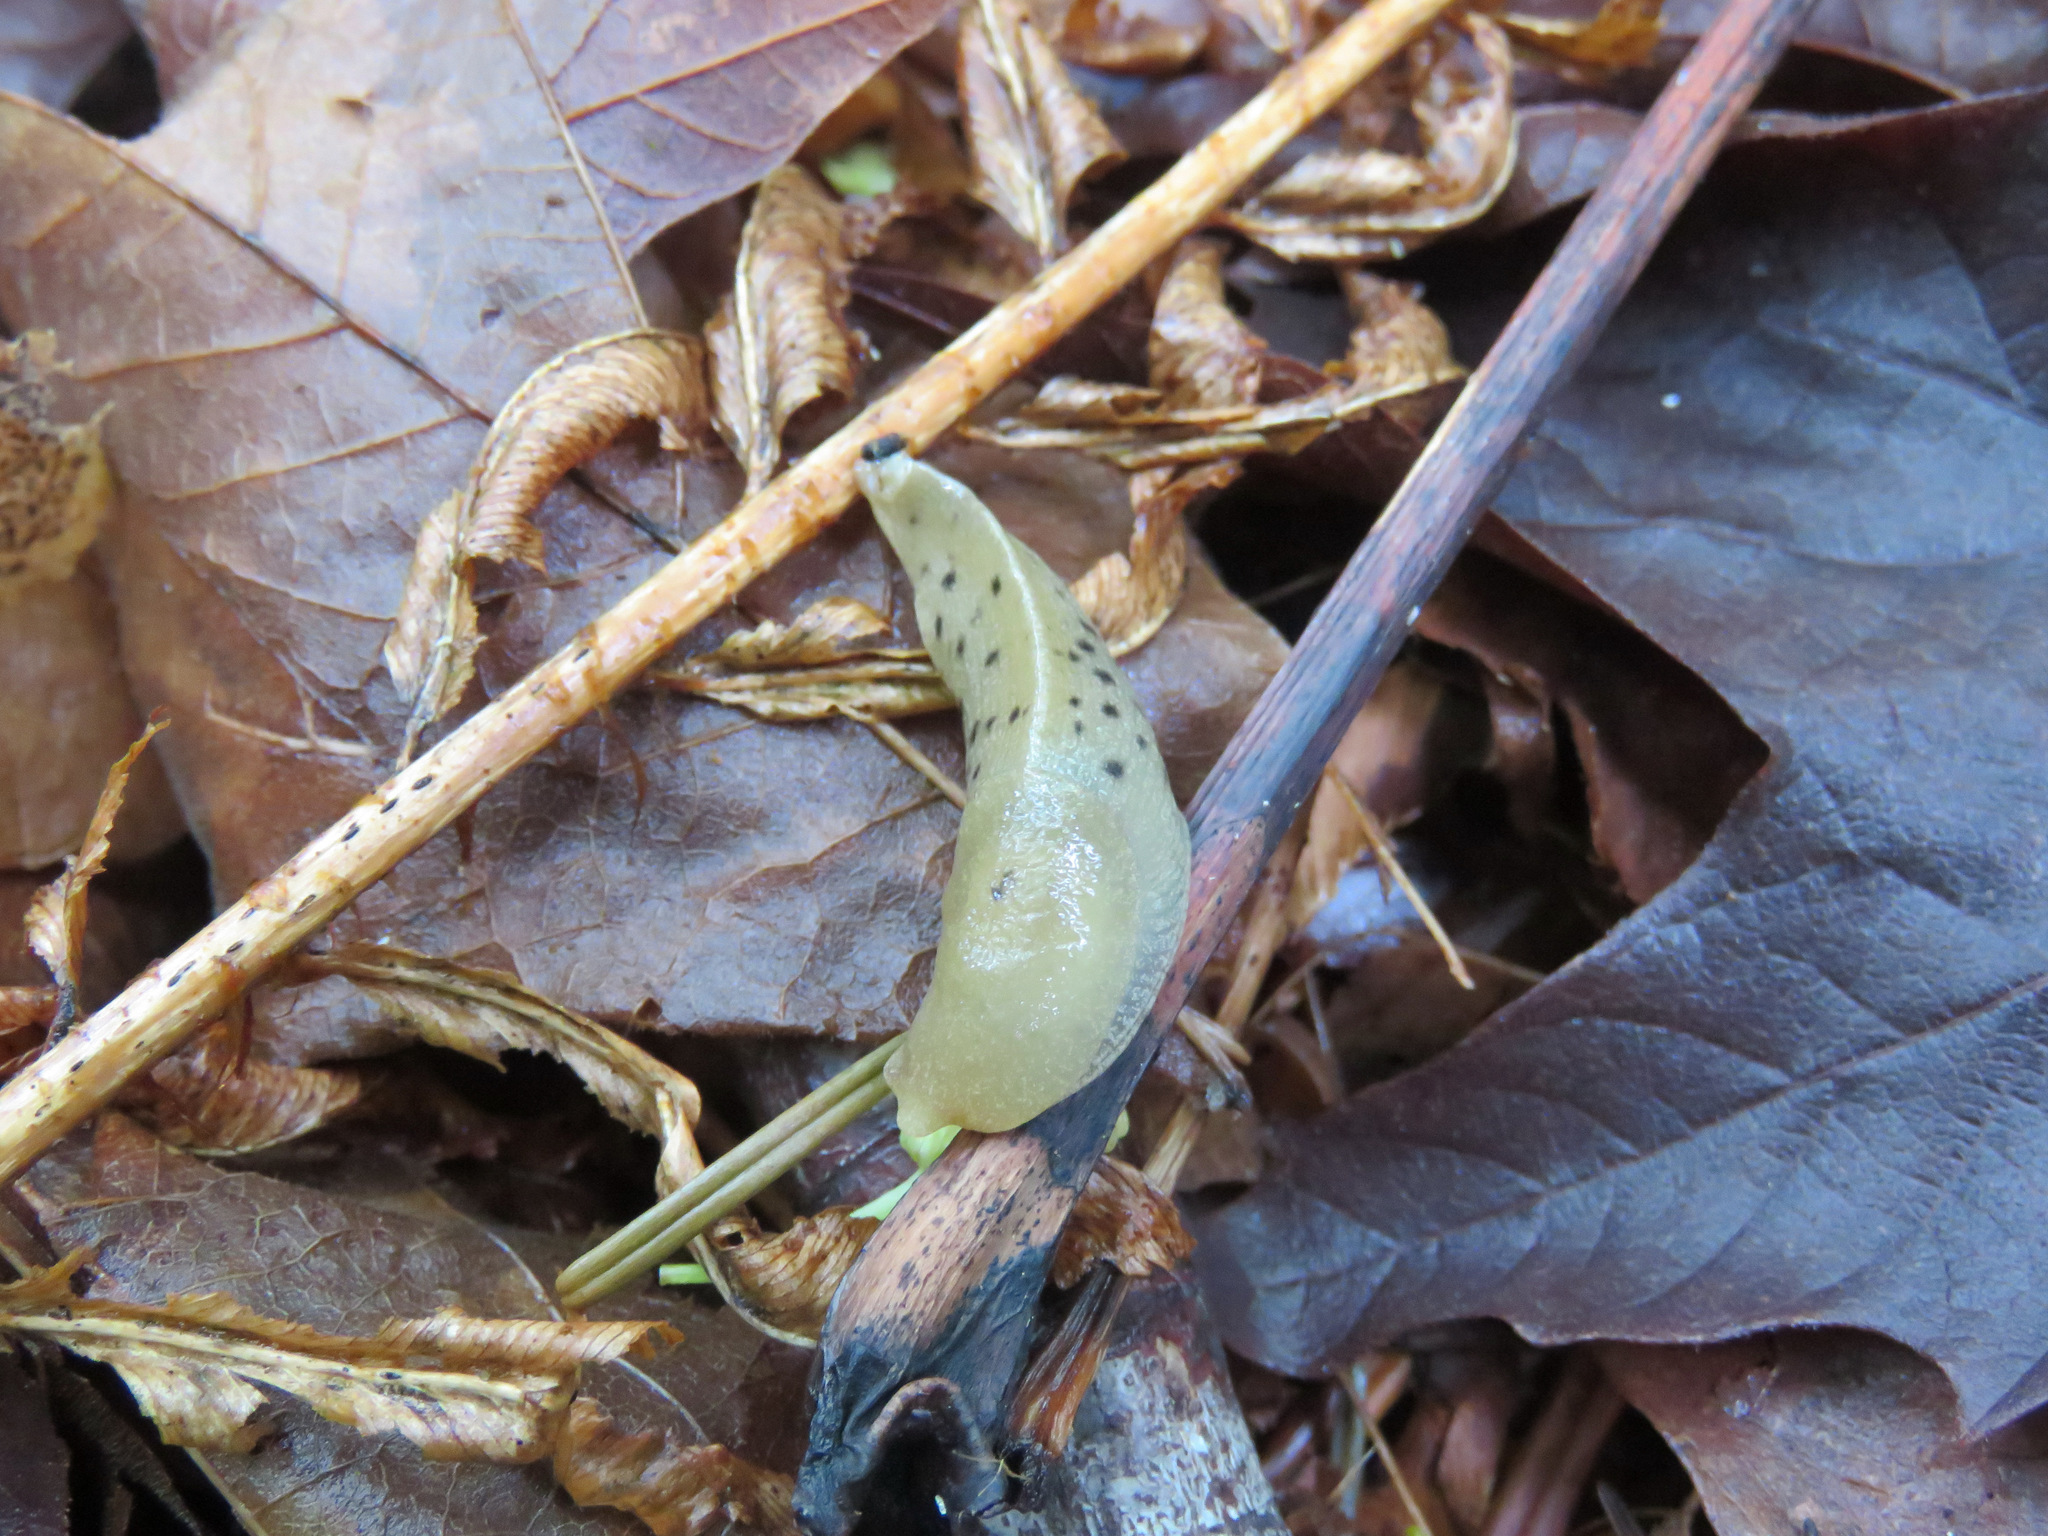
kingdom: Animalia
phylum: Mollusca
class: Gastropoda
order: Stylommatophora
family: Ariolimacidae
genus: Ariolimax
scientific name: Ariolimax columbianus
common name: Pacific banana slug
